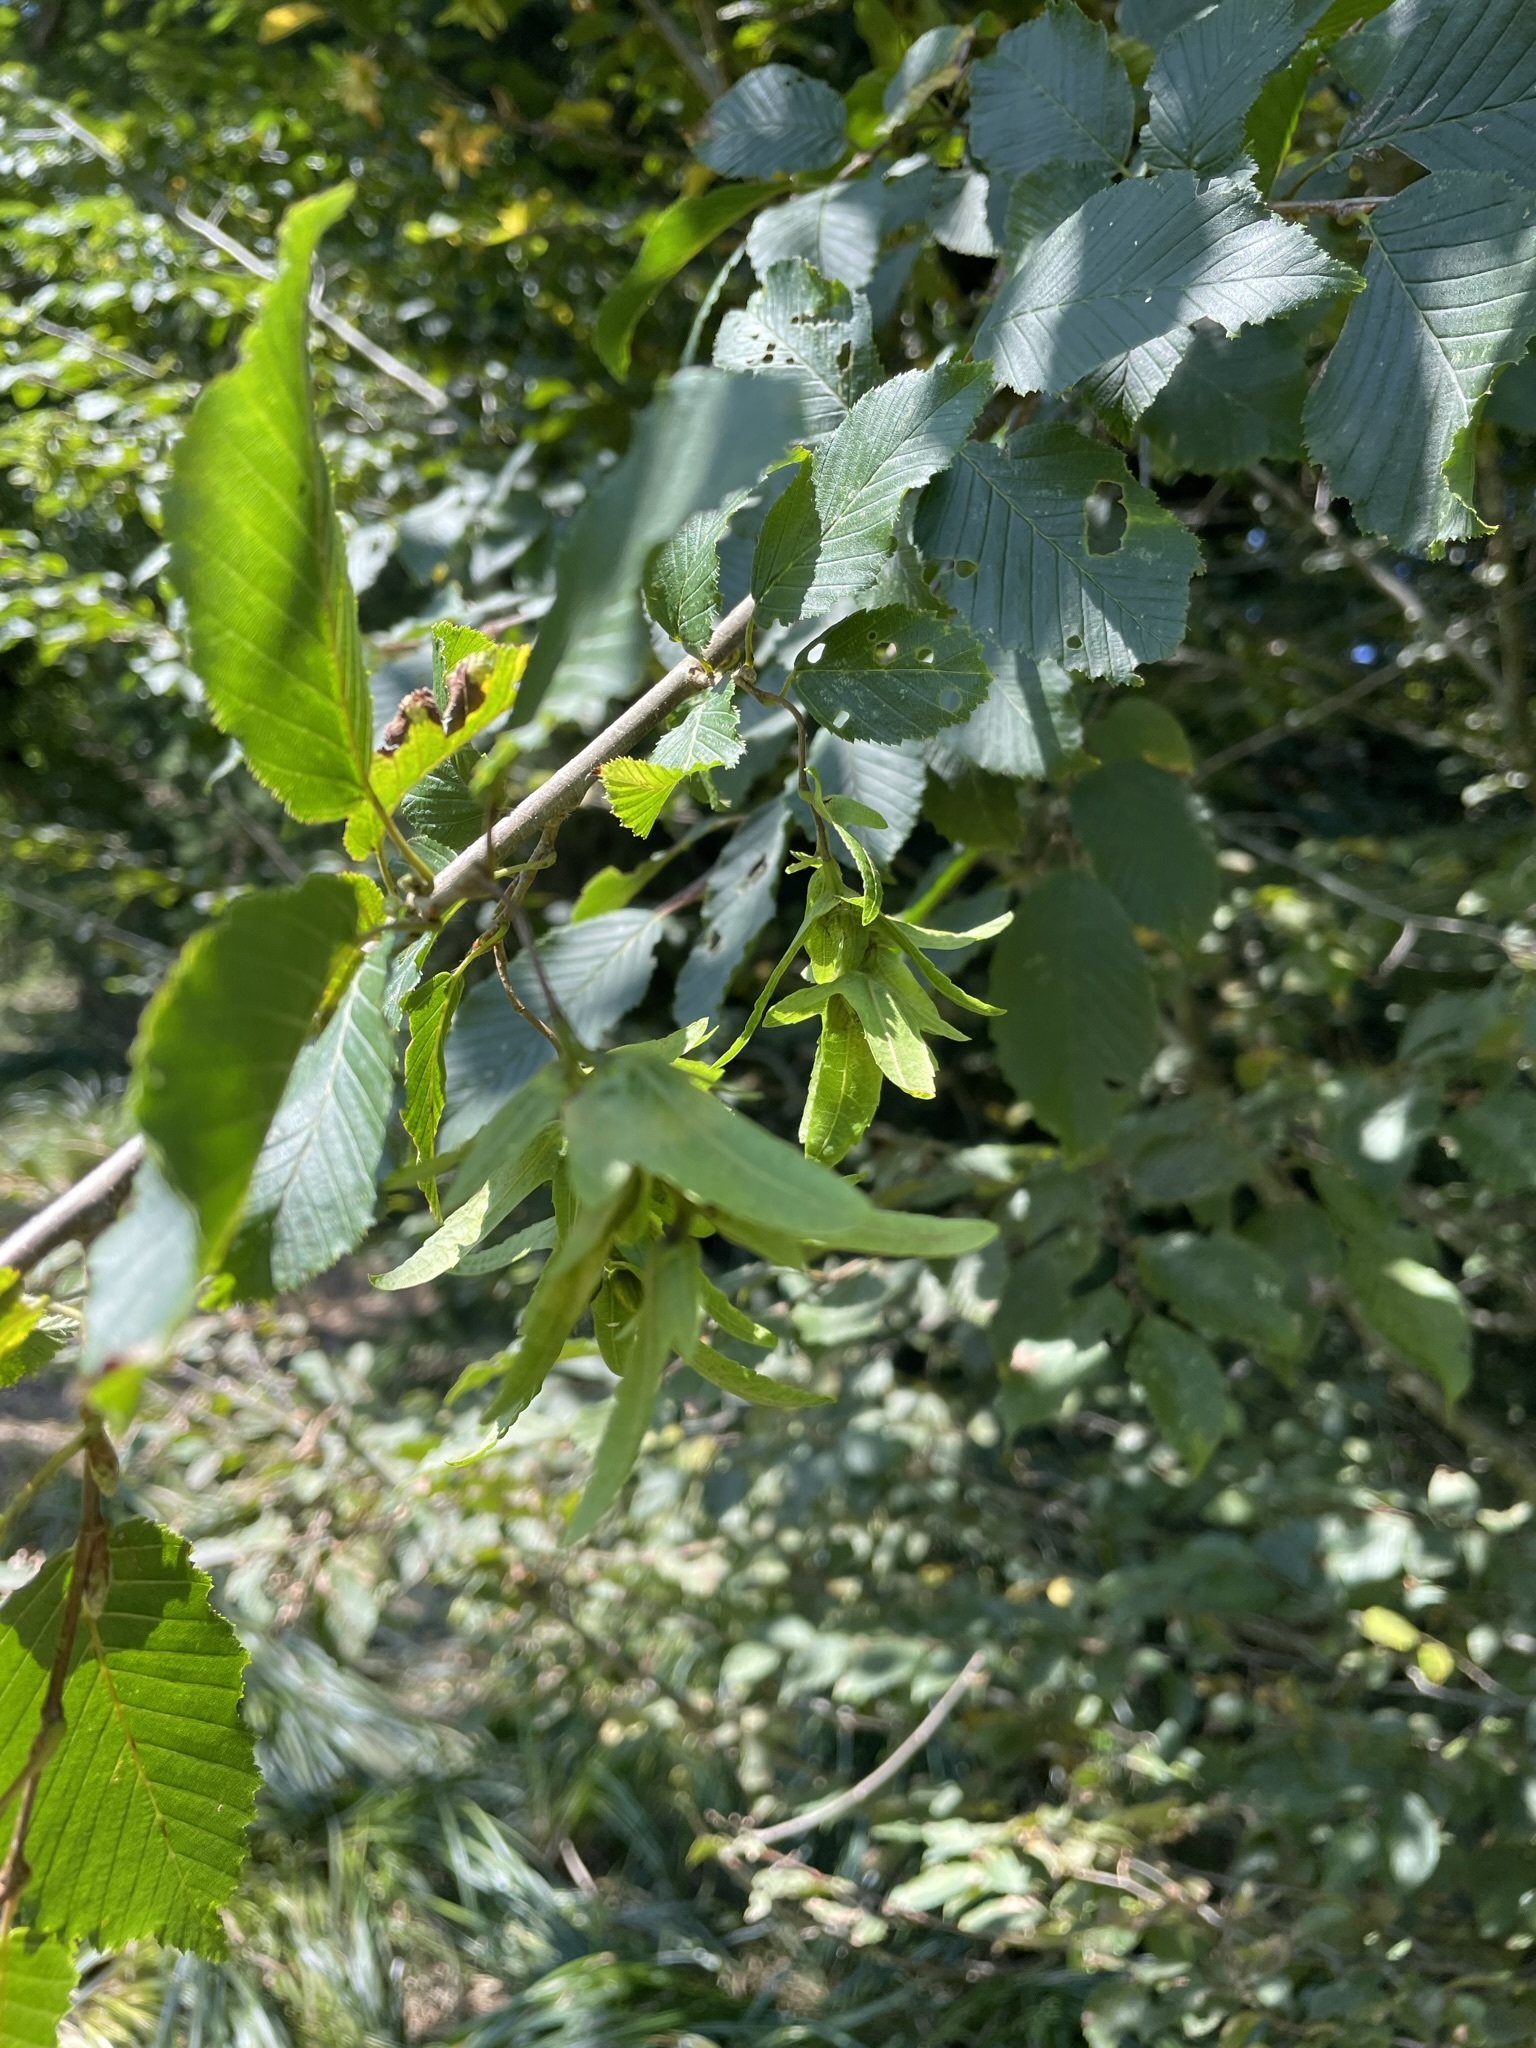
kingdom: Plantae
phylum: Tracheophyta
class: Magnoliopsida
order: Fagales
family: Betulaceae
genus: Carpinus
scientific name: Carpinus betulus
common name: Hornbeam
